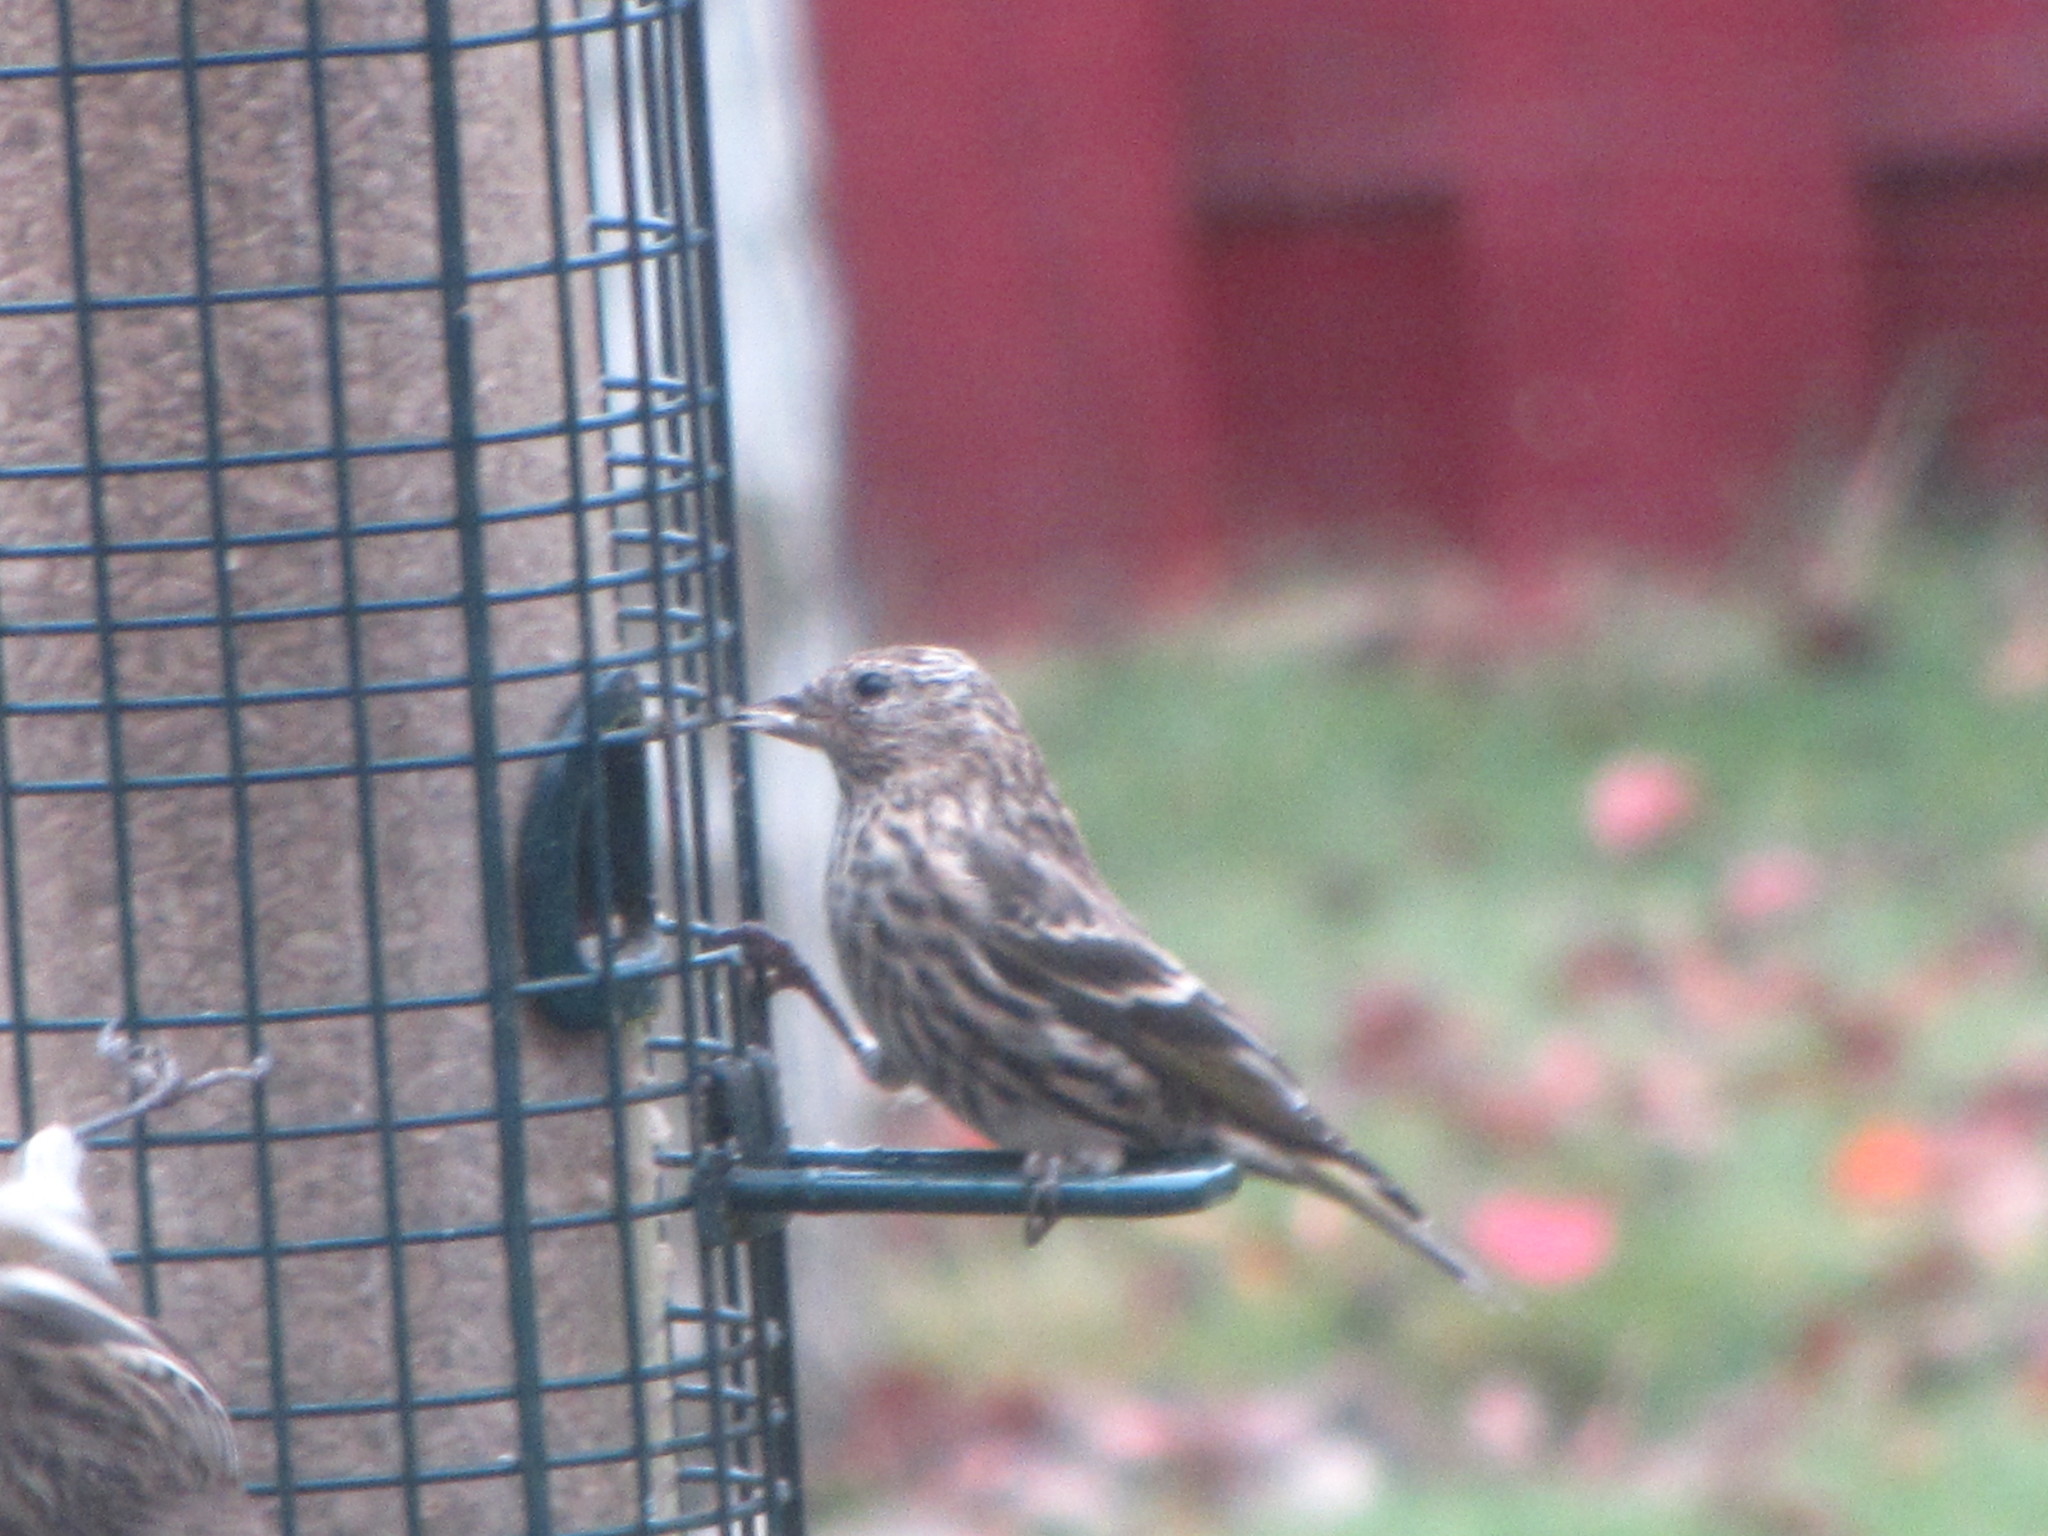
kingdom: Animalia
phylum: Chordata
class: Aves
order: Passeriformes
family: Fringillidae
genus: Spinus
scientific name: Spinus pinus
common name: Pine siskin
